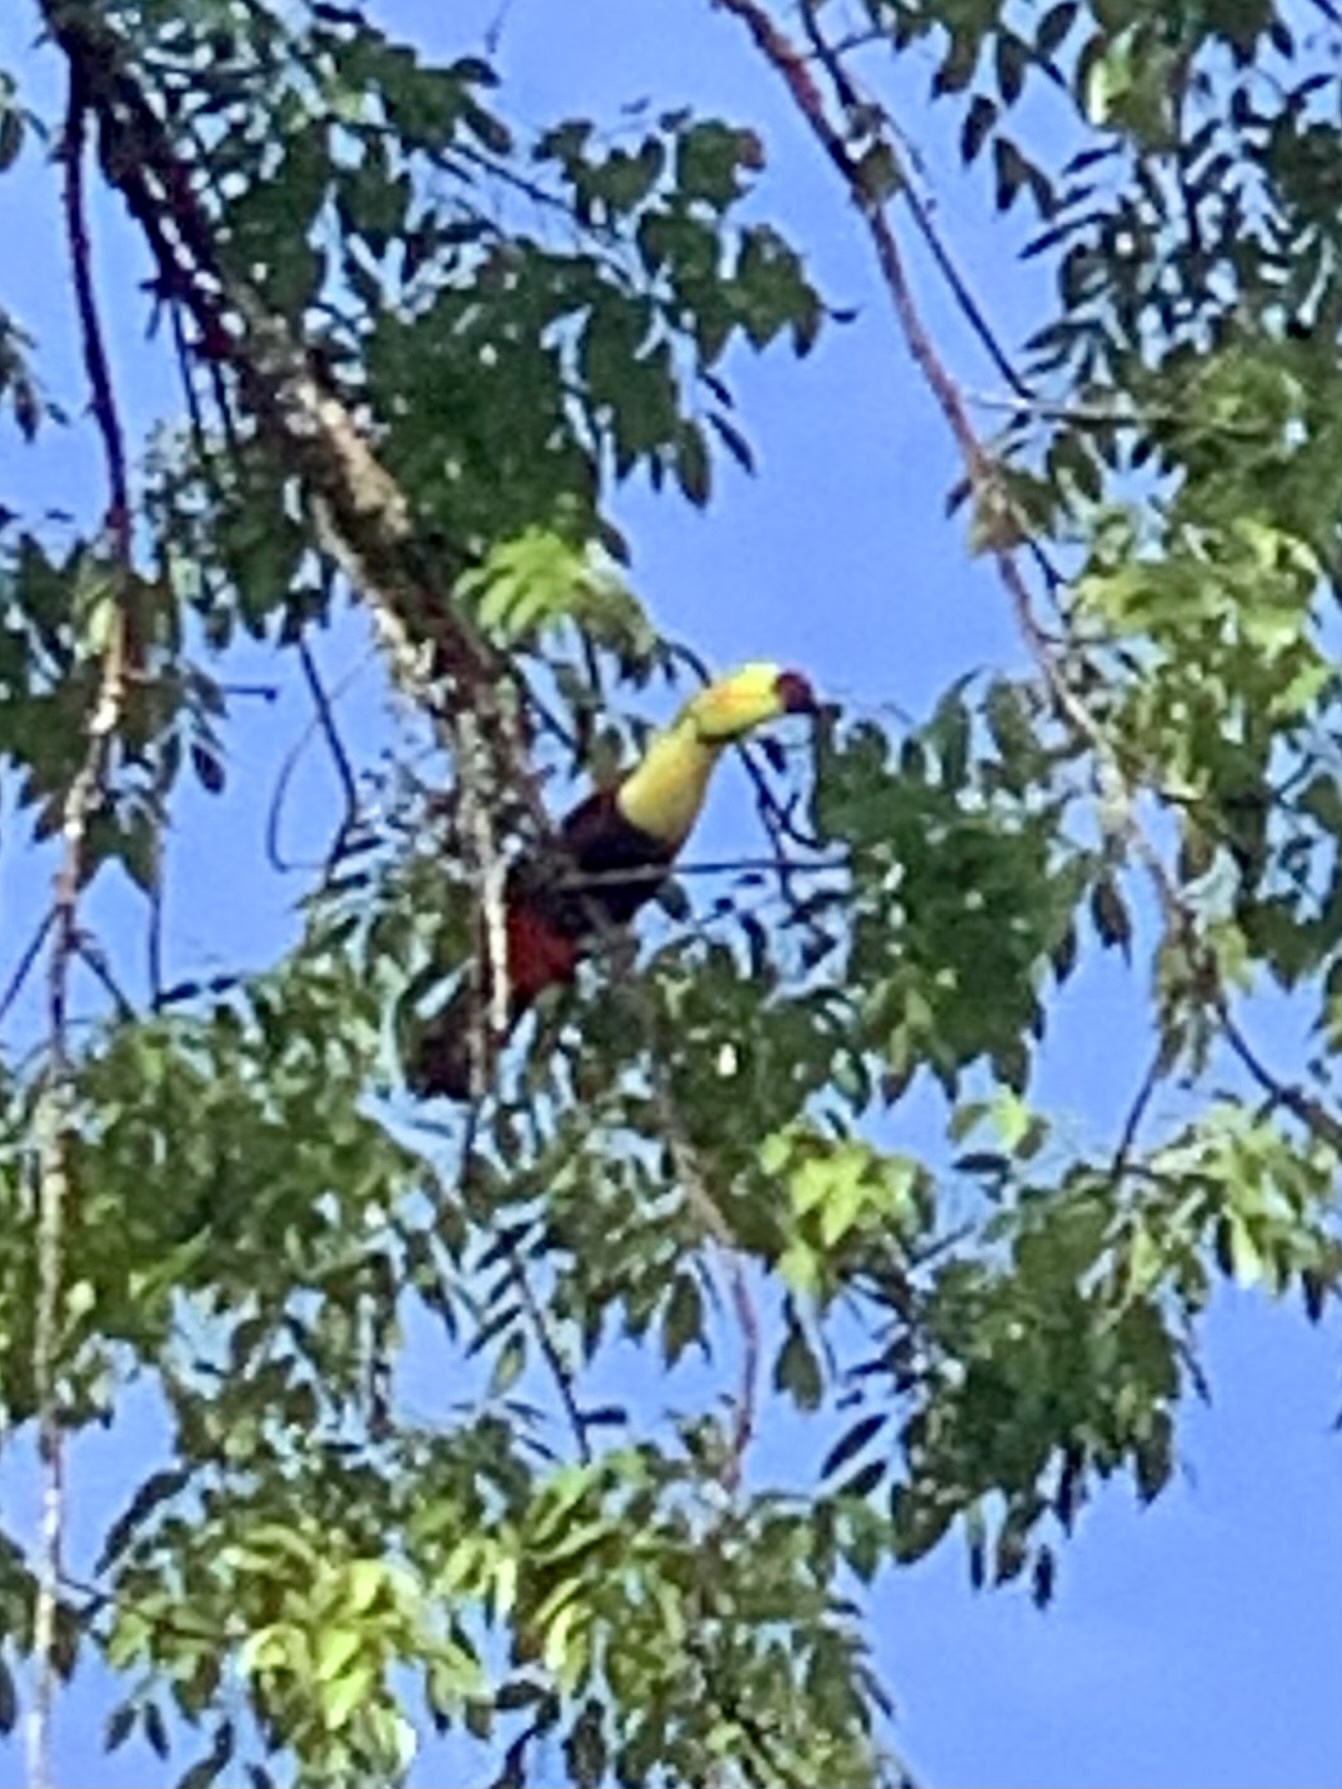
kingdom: Animalia
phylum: Chordata
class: Aves
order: Piciformes
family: Ramphastidae
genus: Ramphastos
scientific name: Ramphastos sulfuratus
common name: Keel-billed toucan
